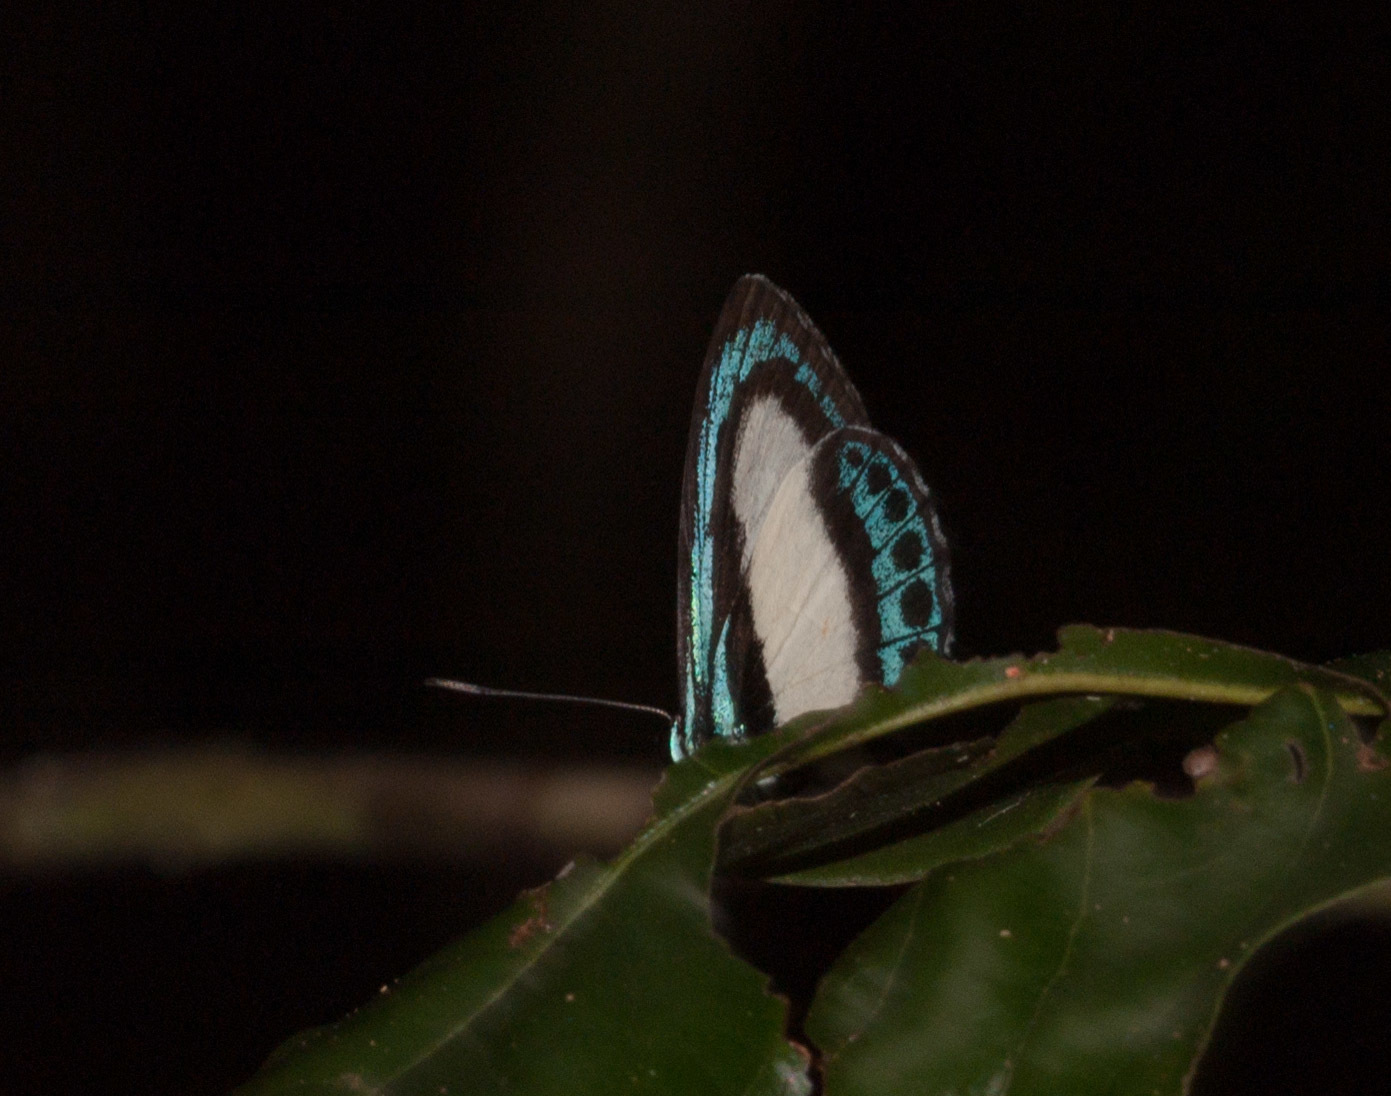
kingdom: Animalia
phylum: Arthropoda
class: Insecta
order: Lepidoptera
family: Lycaenidae
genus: Danis
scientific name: Danis danis
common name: Large green-banded blue
